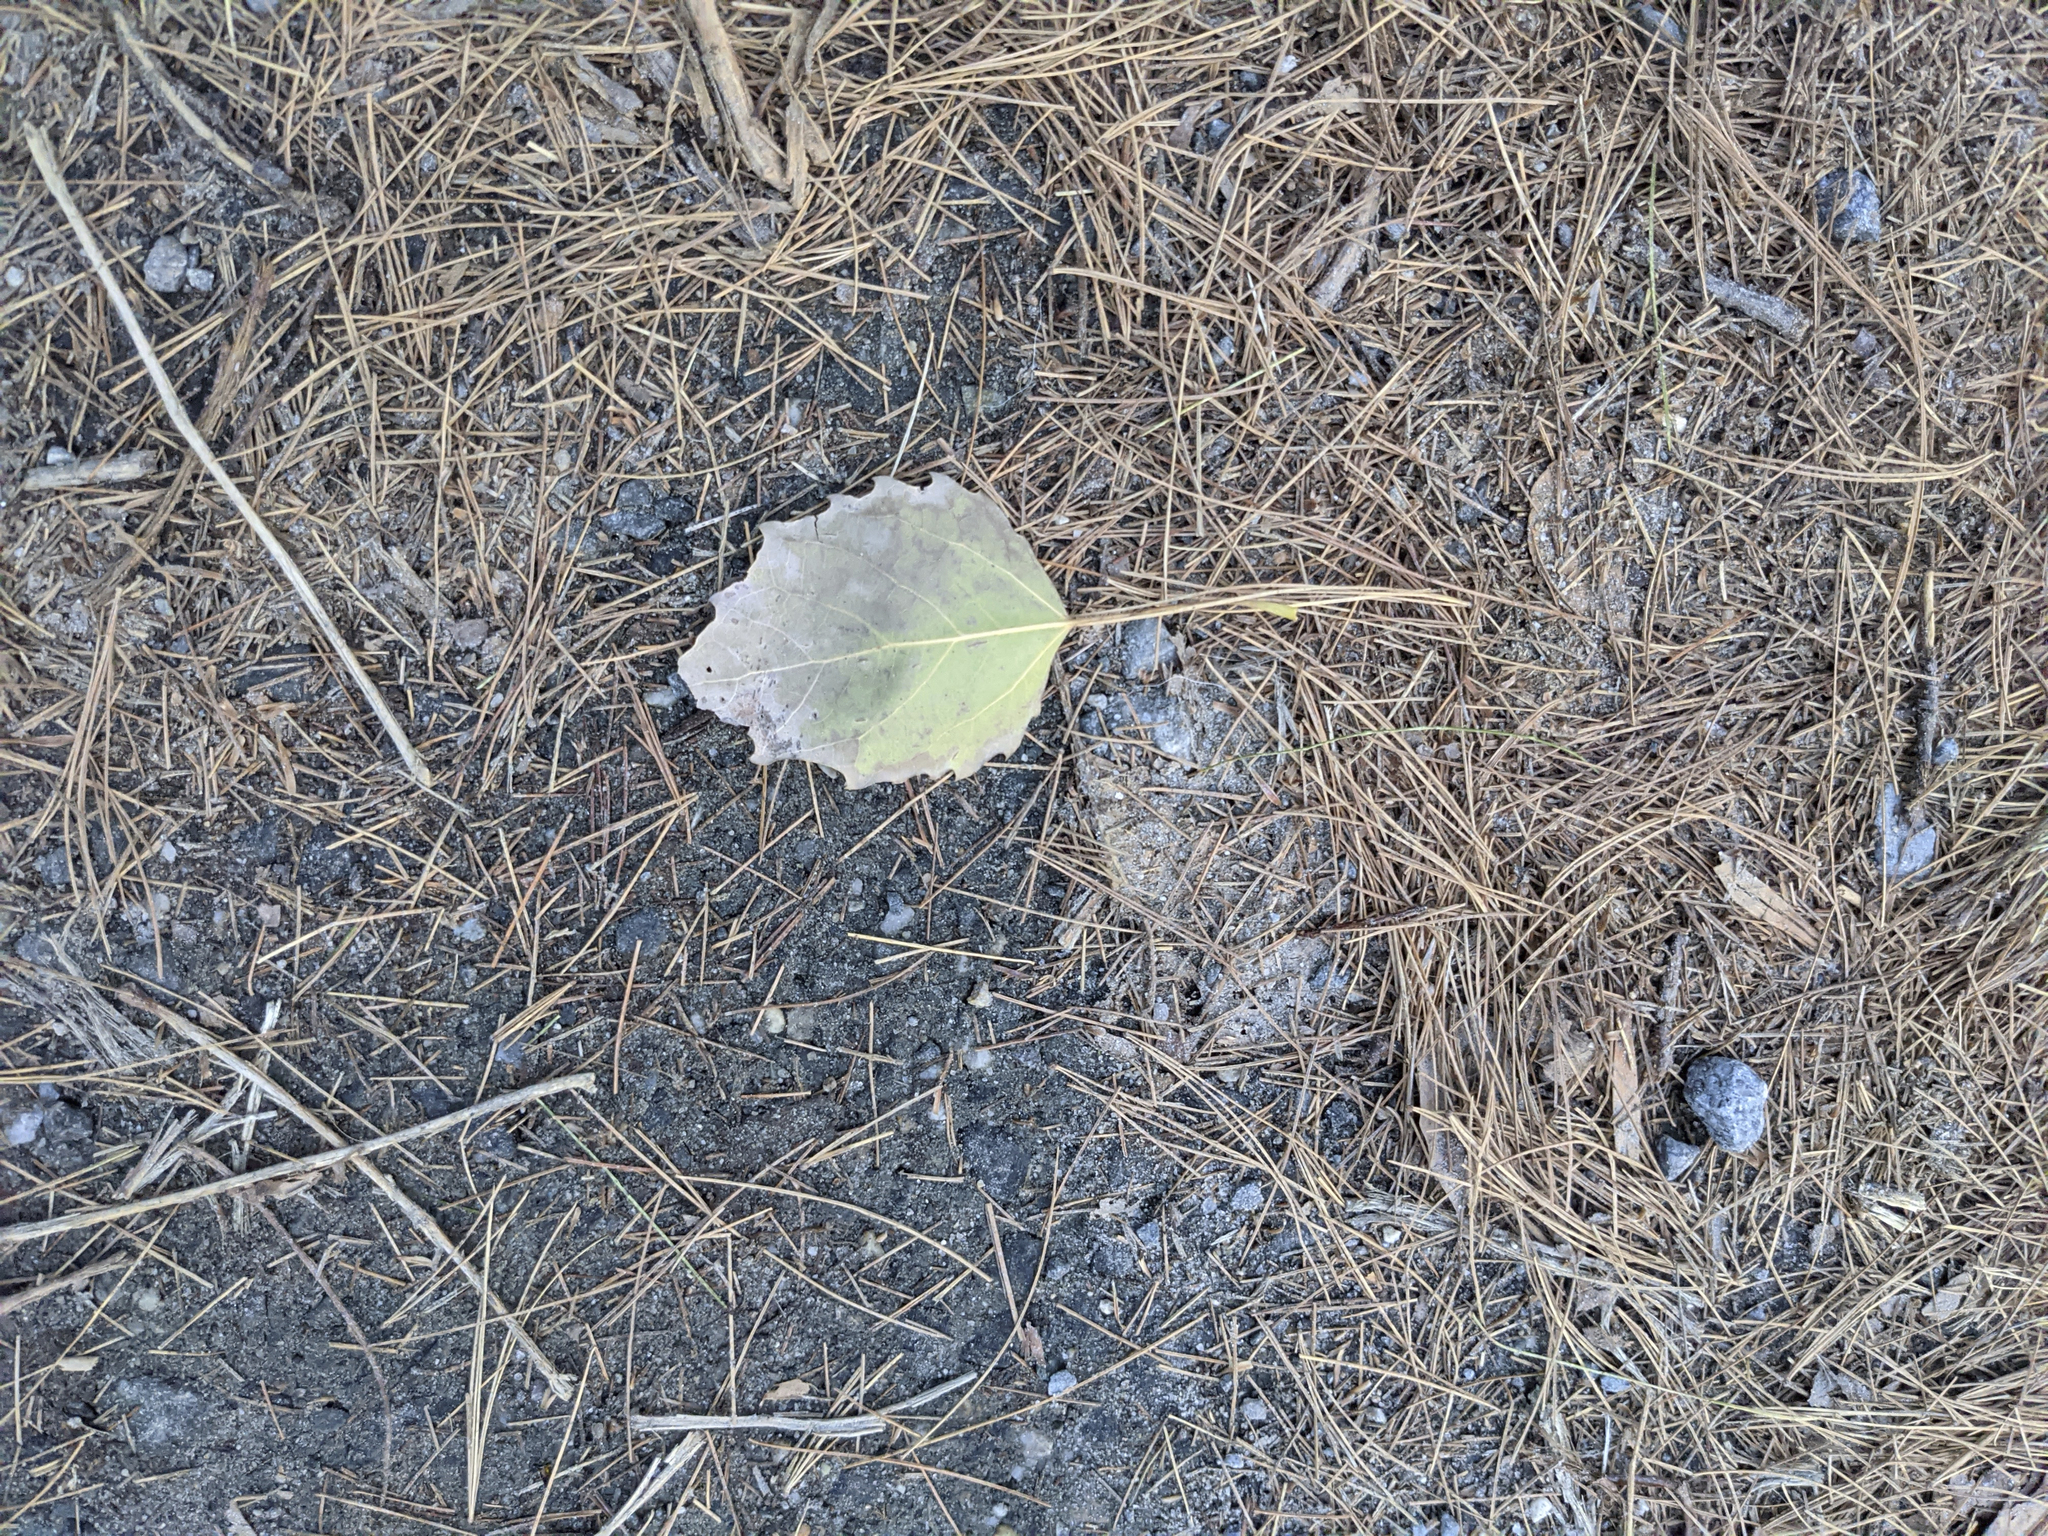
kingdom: Plantae
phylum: Tracheophyta
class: Magnoliopsida
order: Malpighiales
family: Salicaceae
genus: Populus
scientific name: Populus grandidentata
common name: Bigtooth aspen
